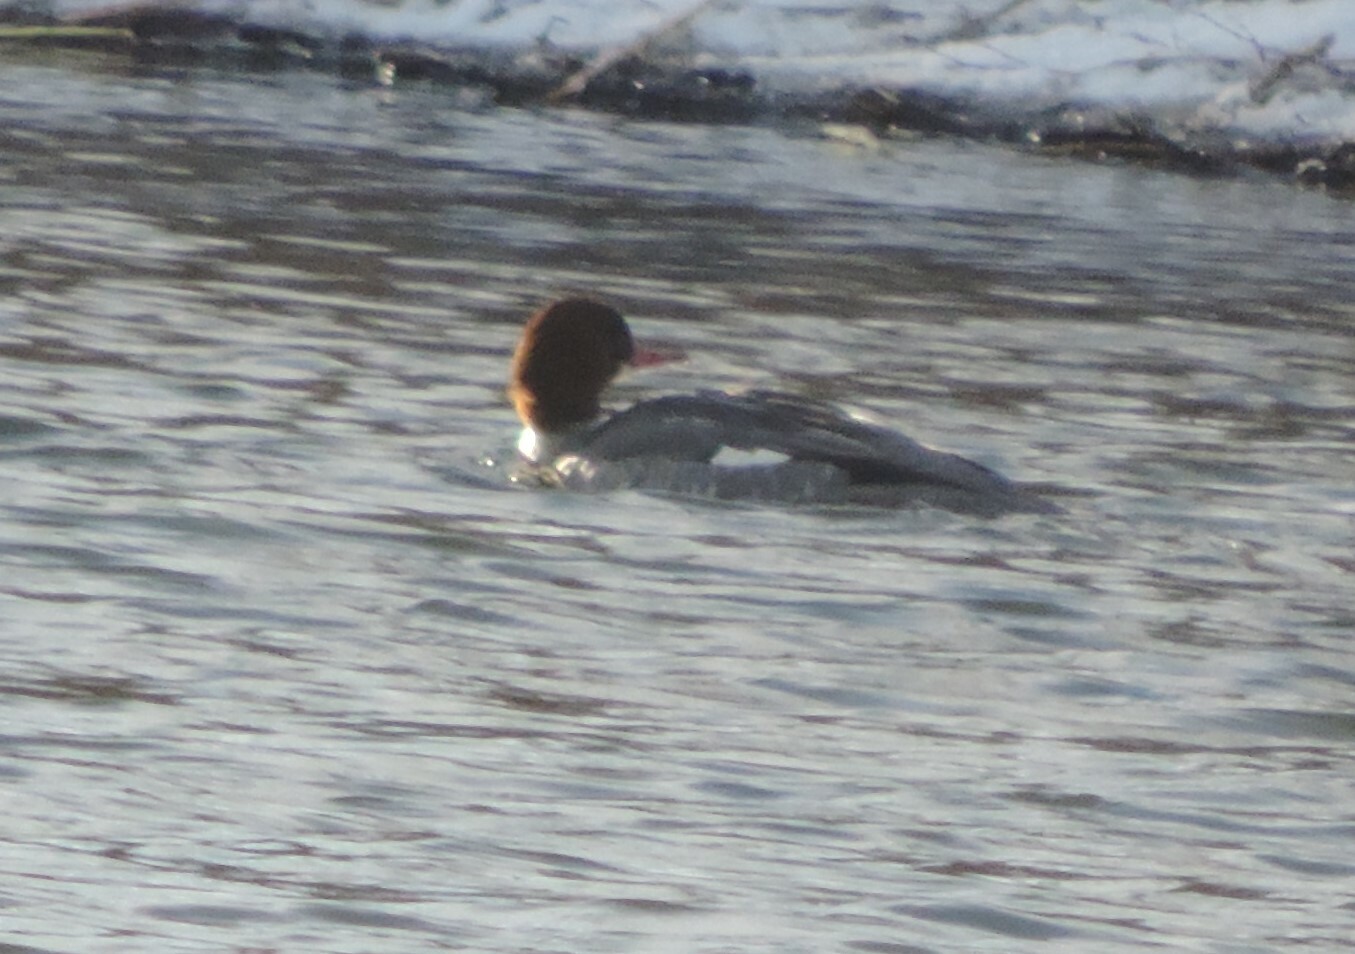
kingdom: Animalia
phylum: Chordata
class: Aves
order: Anseriformes
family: Anatidae
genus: Mergus
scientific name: Mergus merganser
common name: Common merganser
